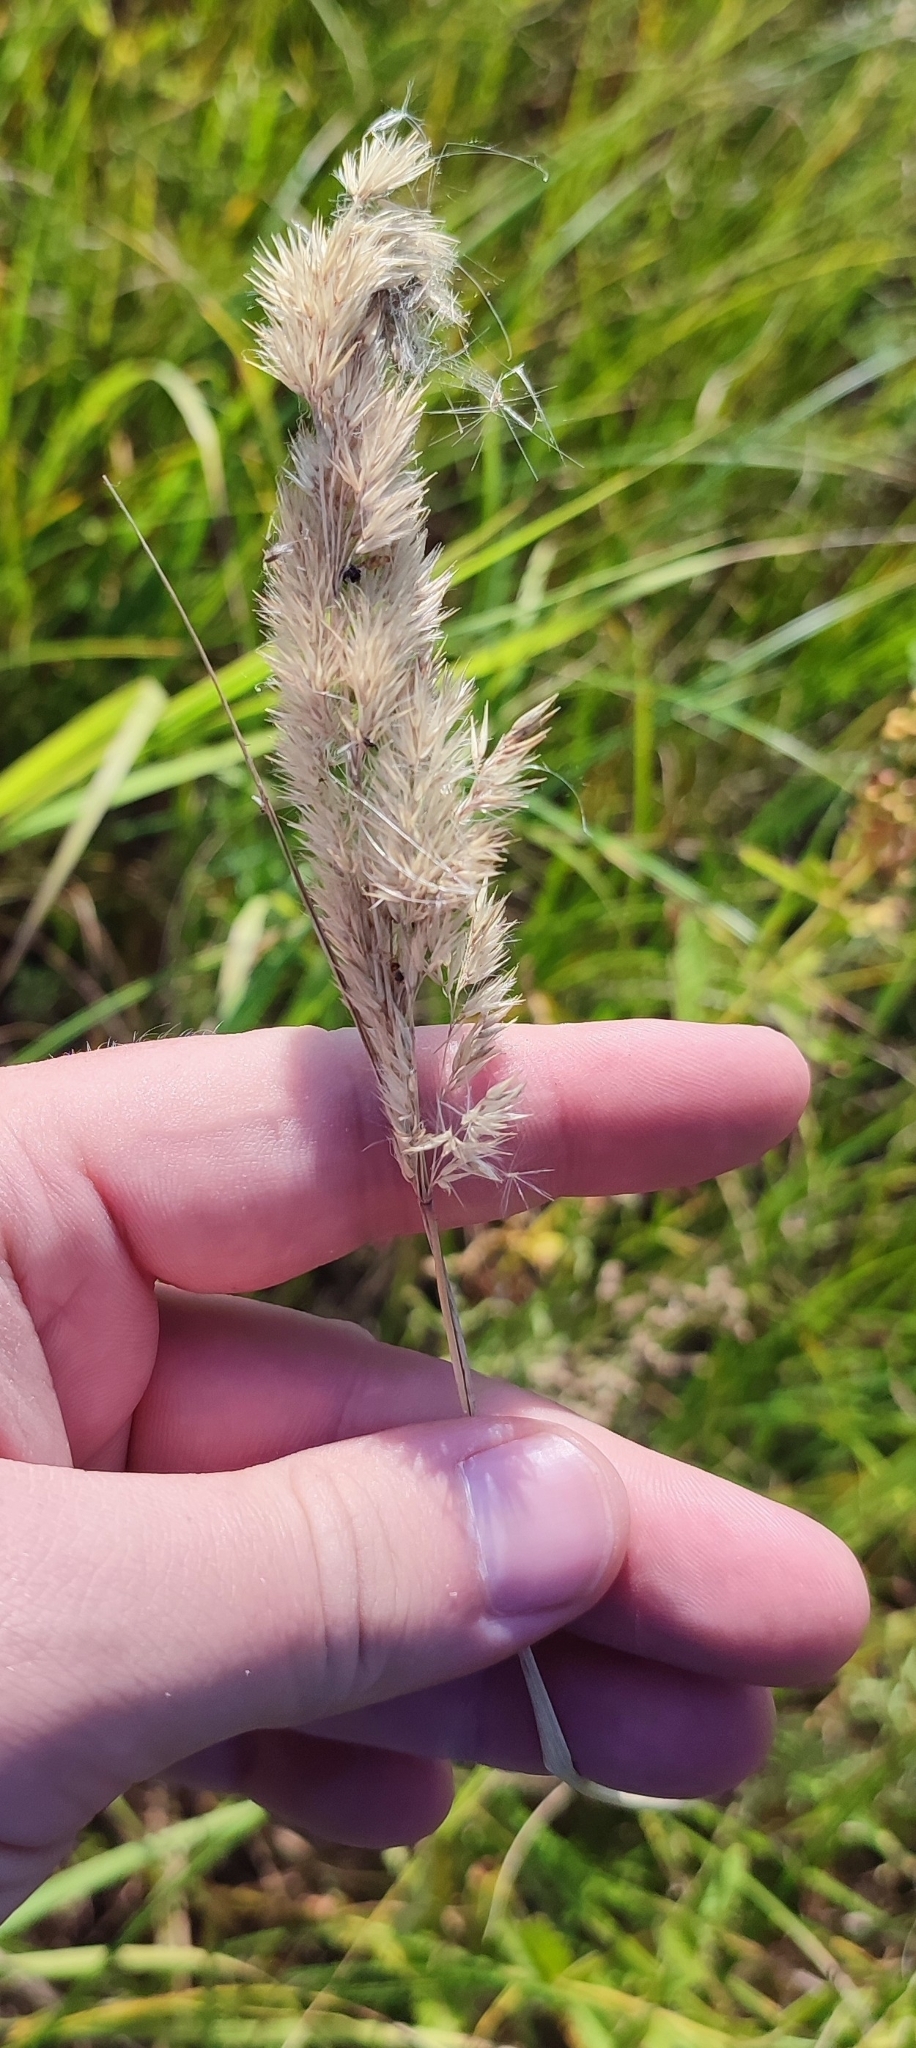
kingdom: Plantae
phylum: Tracheophyta
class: Liliopsida
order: Poales
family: Poaceae
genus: Calamagrostis
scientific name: Calamagrostis epigejos
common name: Wood small-reed
